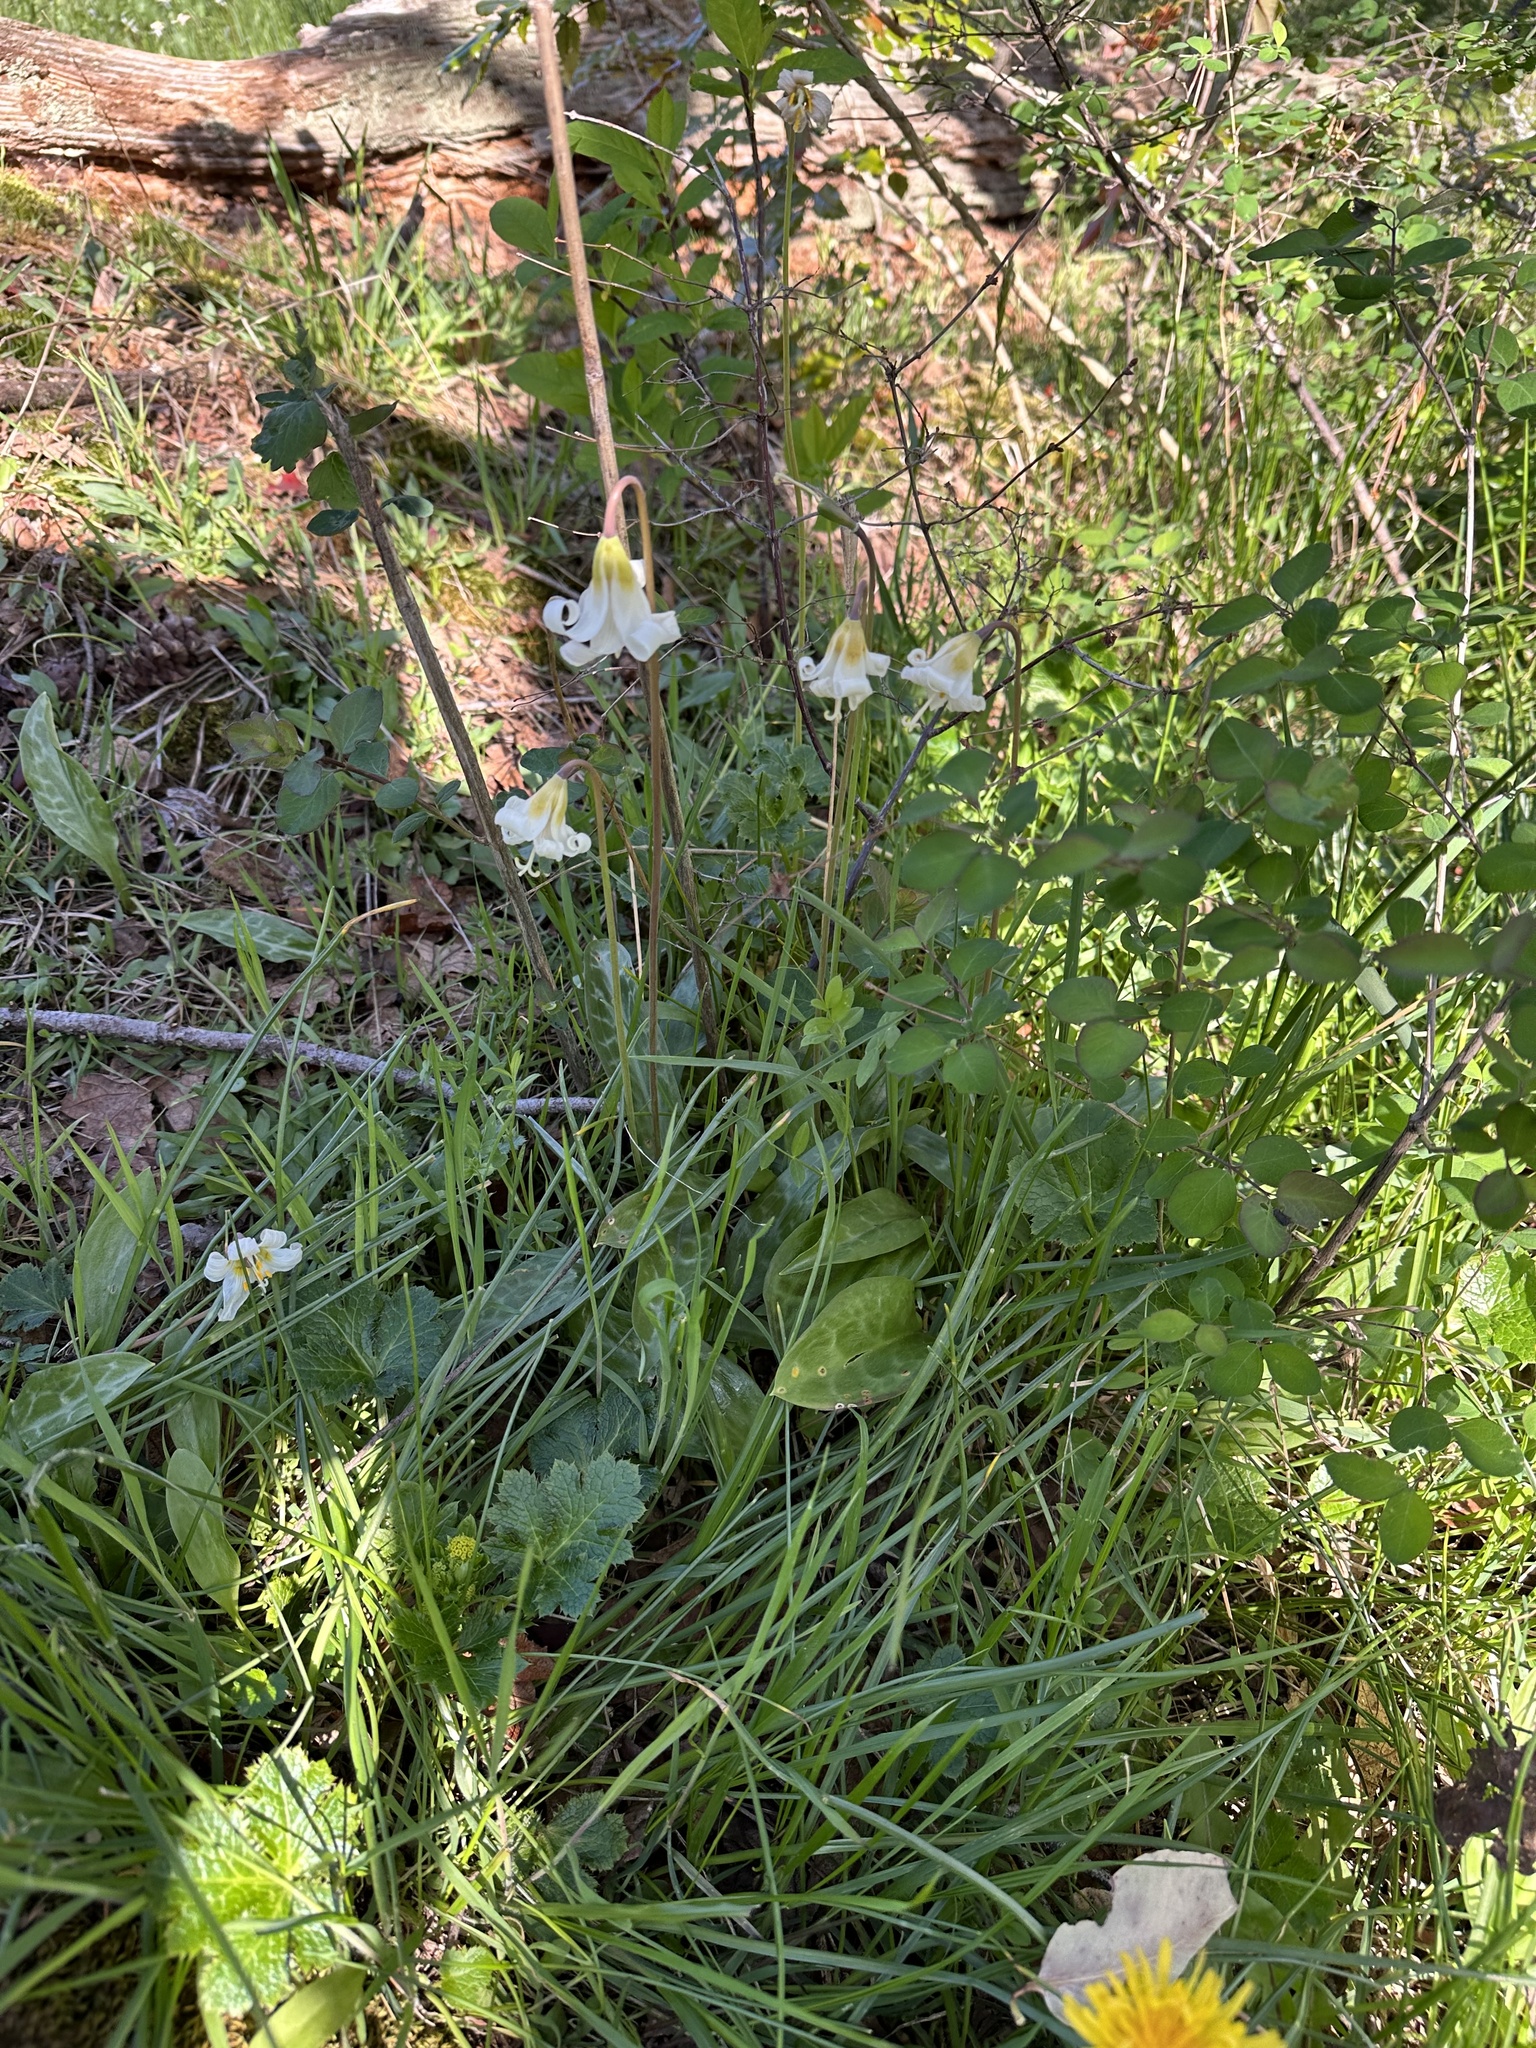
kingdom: Plantae
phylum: Tracheophyta
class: Liliopsida
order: Liliales
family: Liliaceae
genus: Erythronium
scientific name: Erythronium oregonum
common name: Giant adder's-tongue
